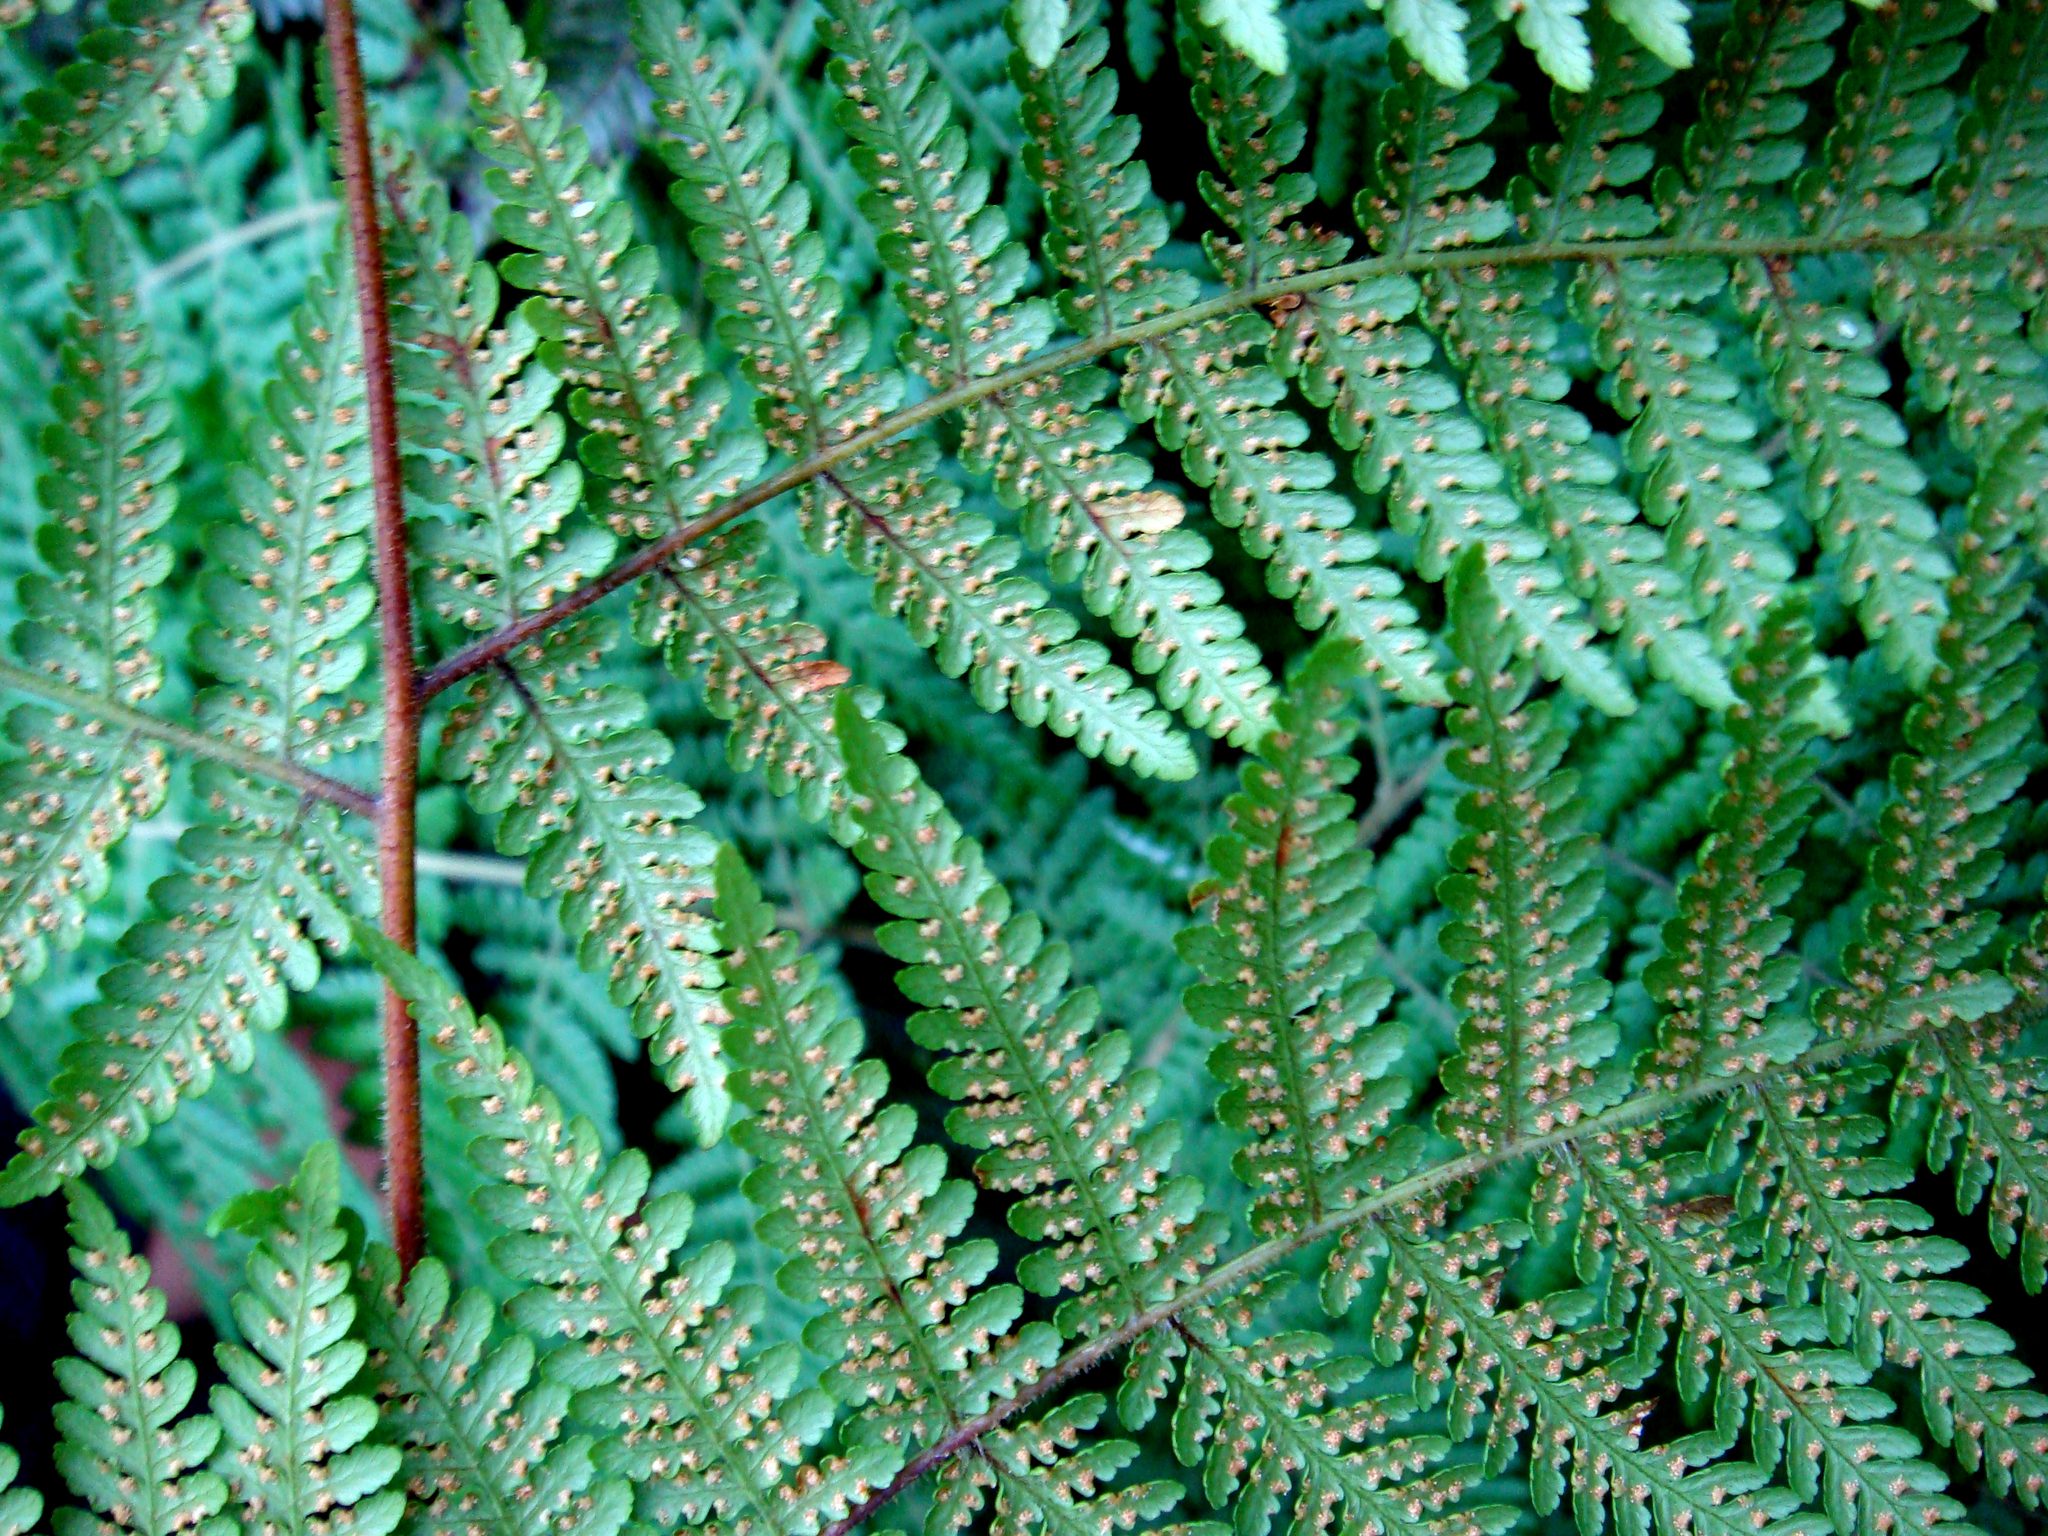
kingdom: Plantae
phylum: Tracheophyta
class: Polypodiopsida
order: Polypodiales
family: Dennstaedtiaceae
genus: Hypolepis
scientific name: Hypolepis dicksonioides
